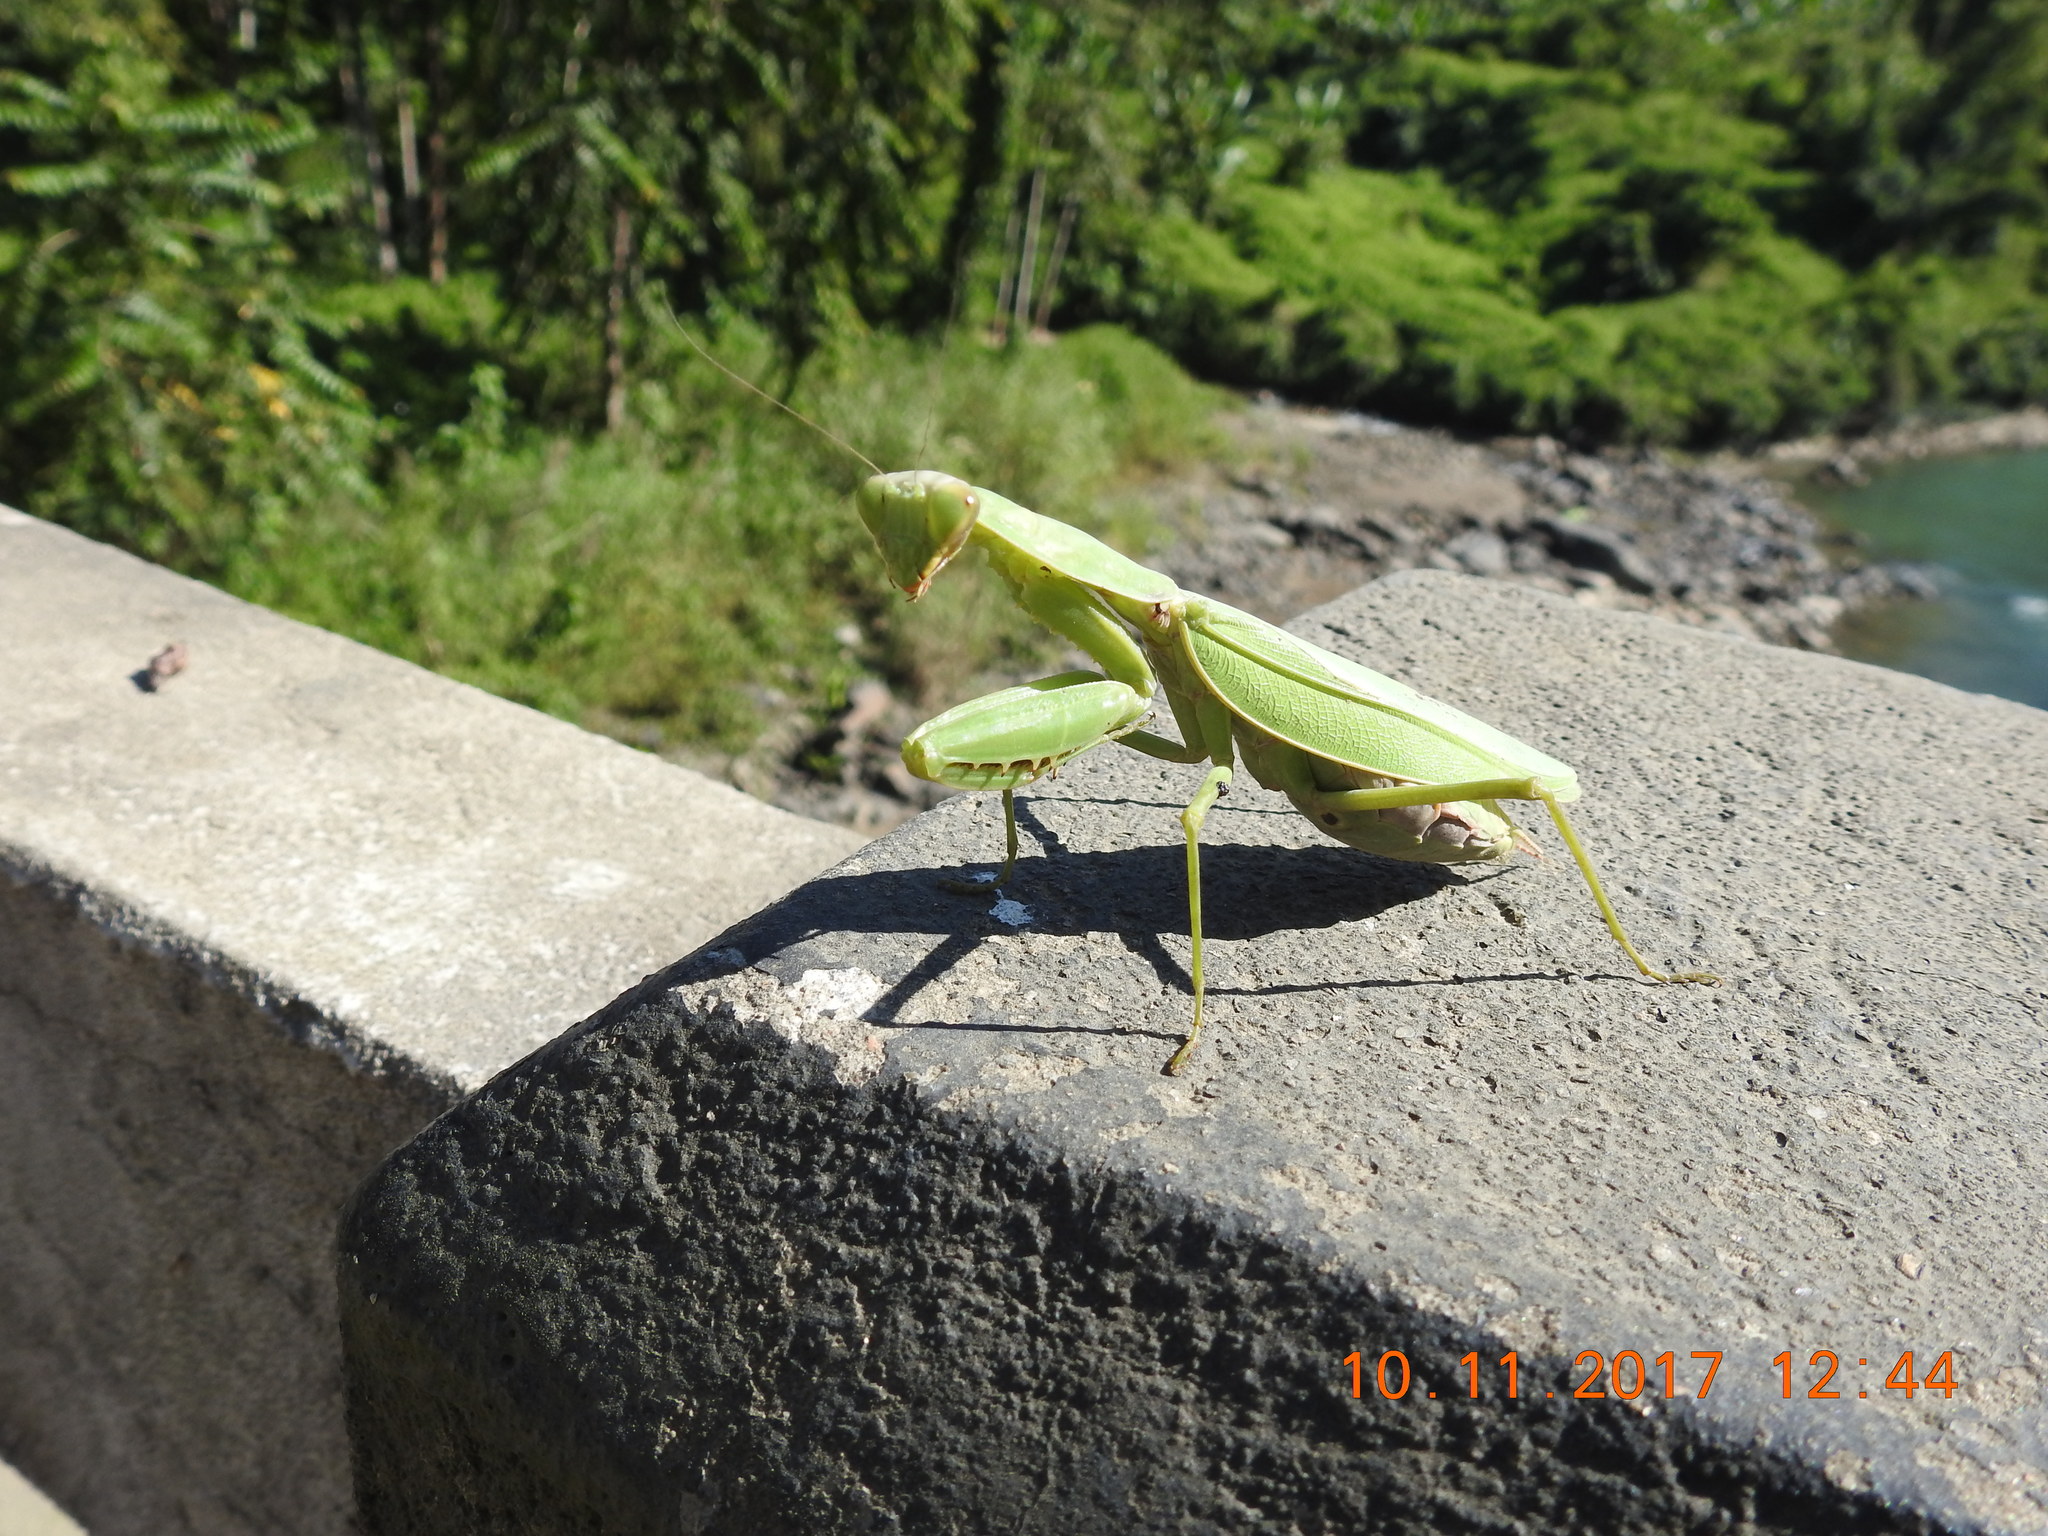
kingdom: Animalia
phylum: Arthropoda
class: Insecta
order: Mantodea
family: Mantidae
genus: Hierodula
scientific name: Hierodula tenuidentata
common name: Giant asian mantis
